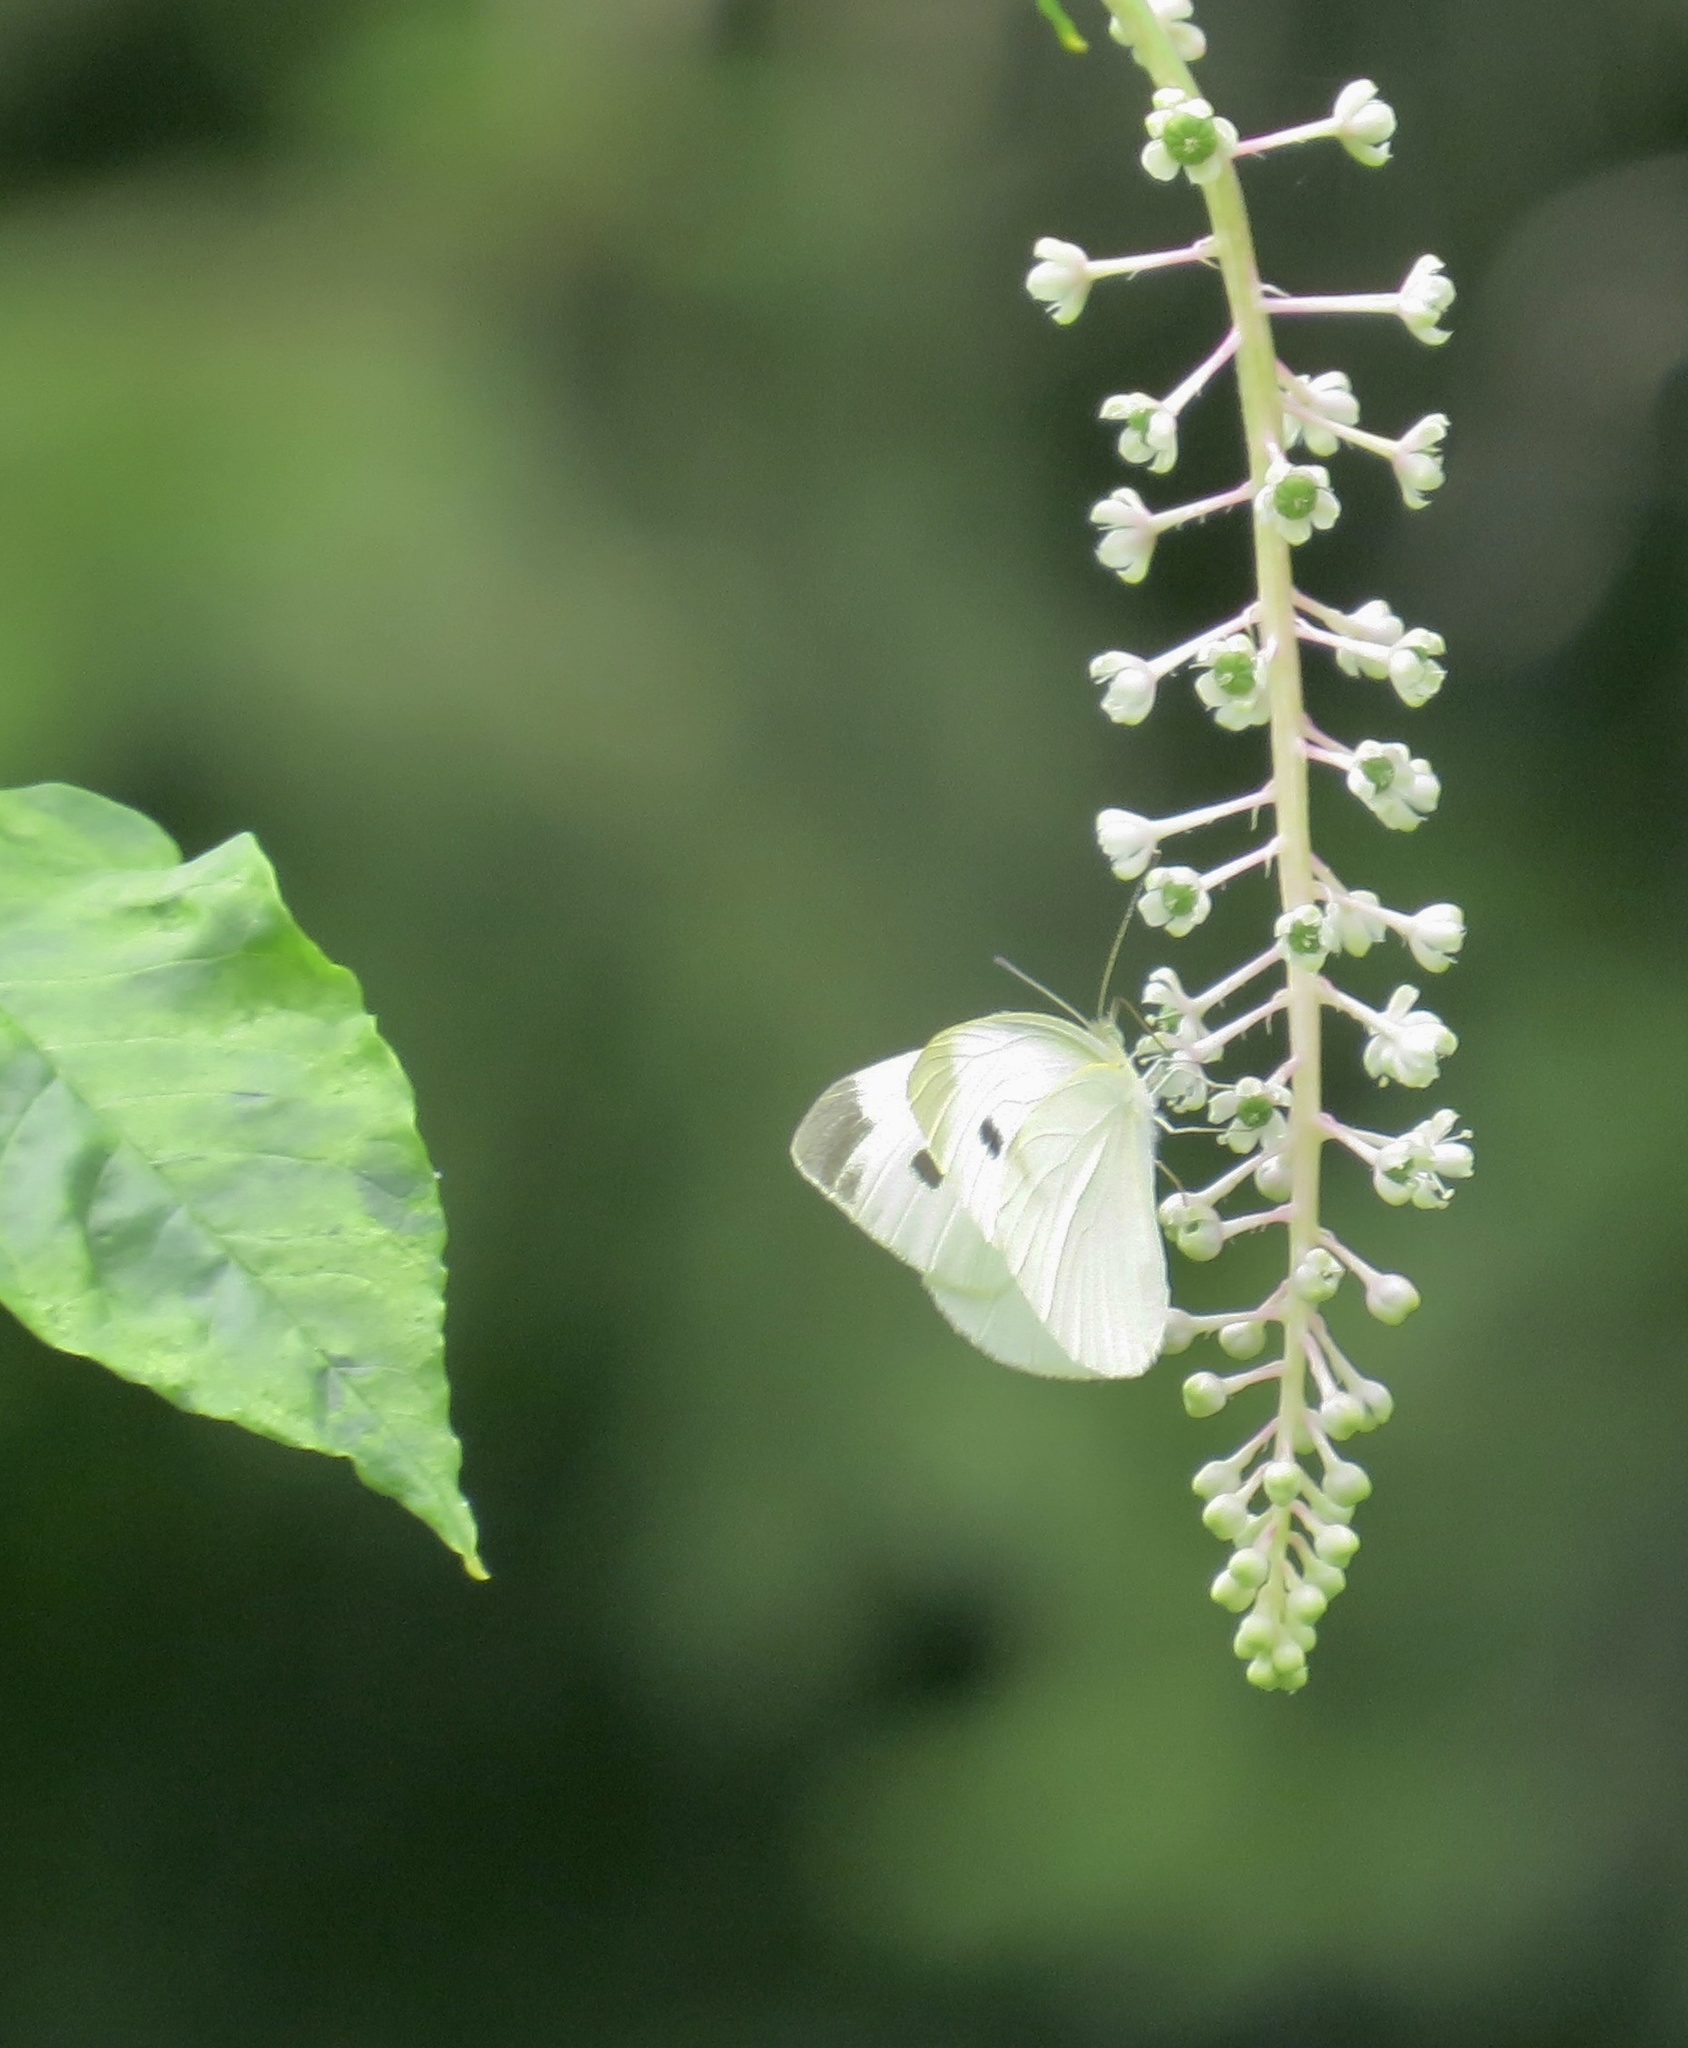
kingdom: Animalia
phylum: Arthropoda
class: Insecta
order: Lepidoptera
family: Pieridae
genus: Pieris
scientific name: Pieris rapae
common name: Small white
